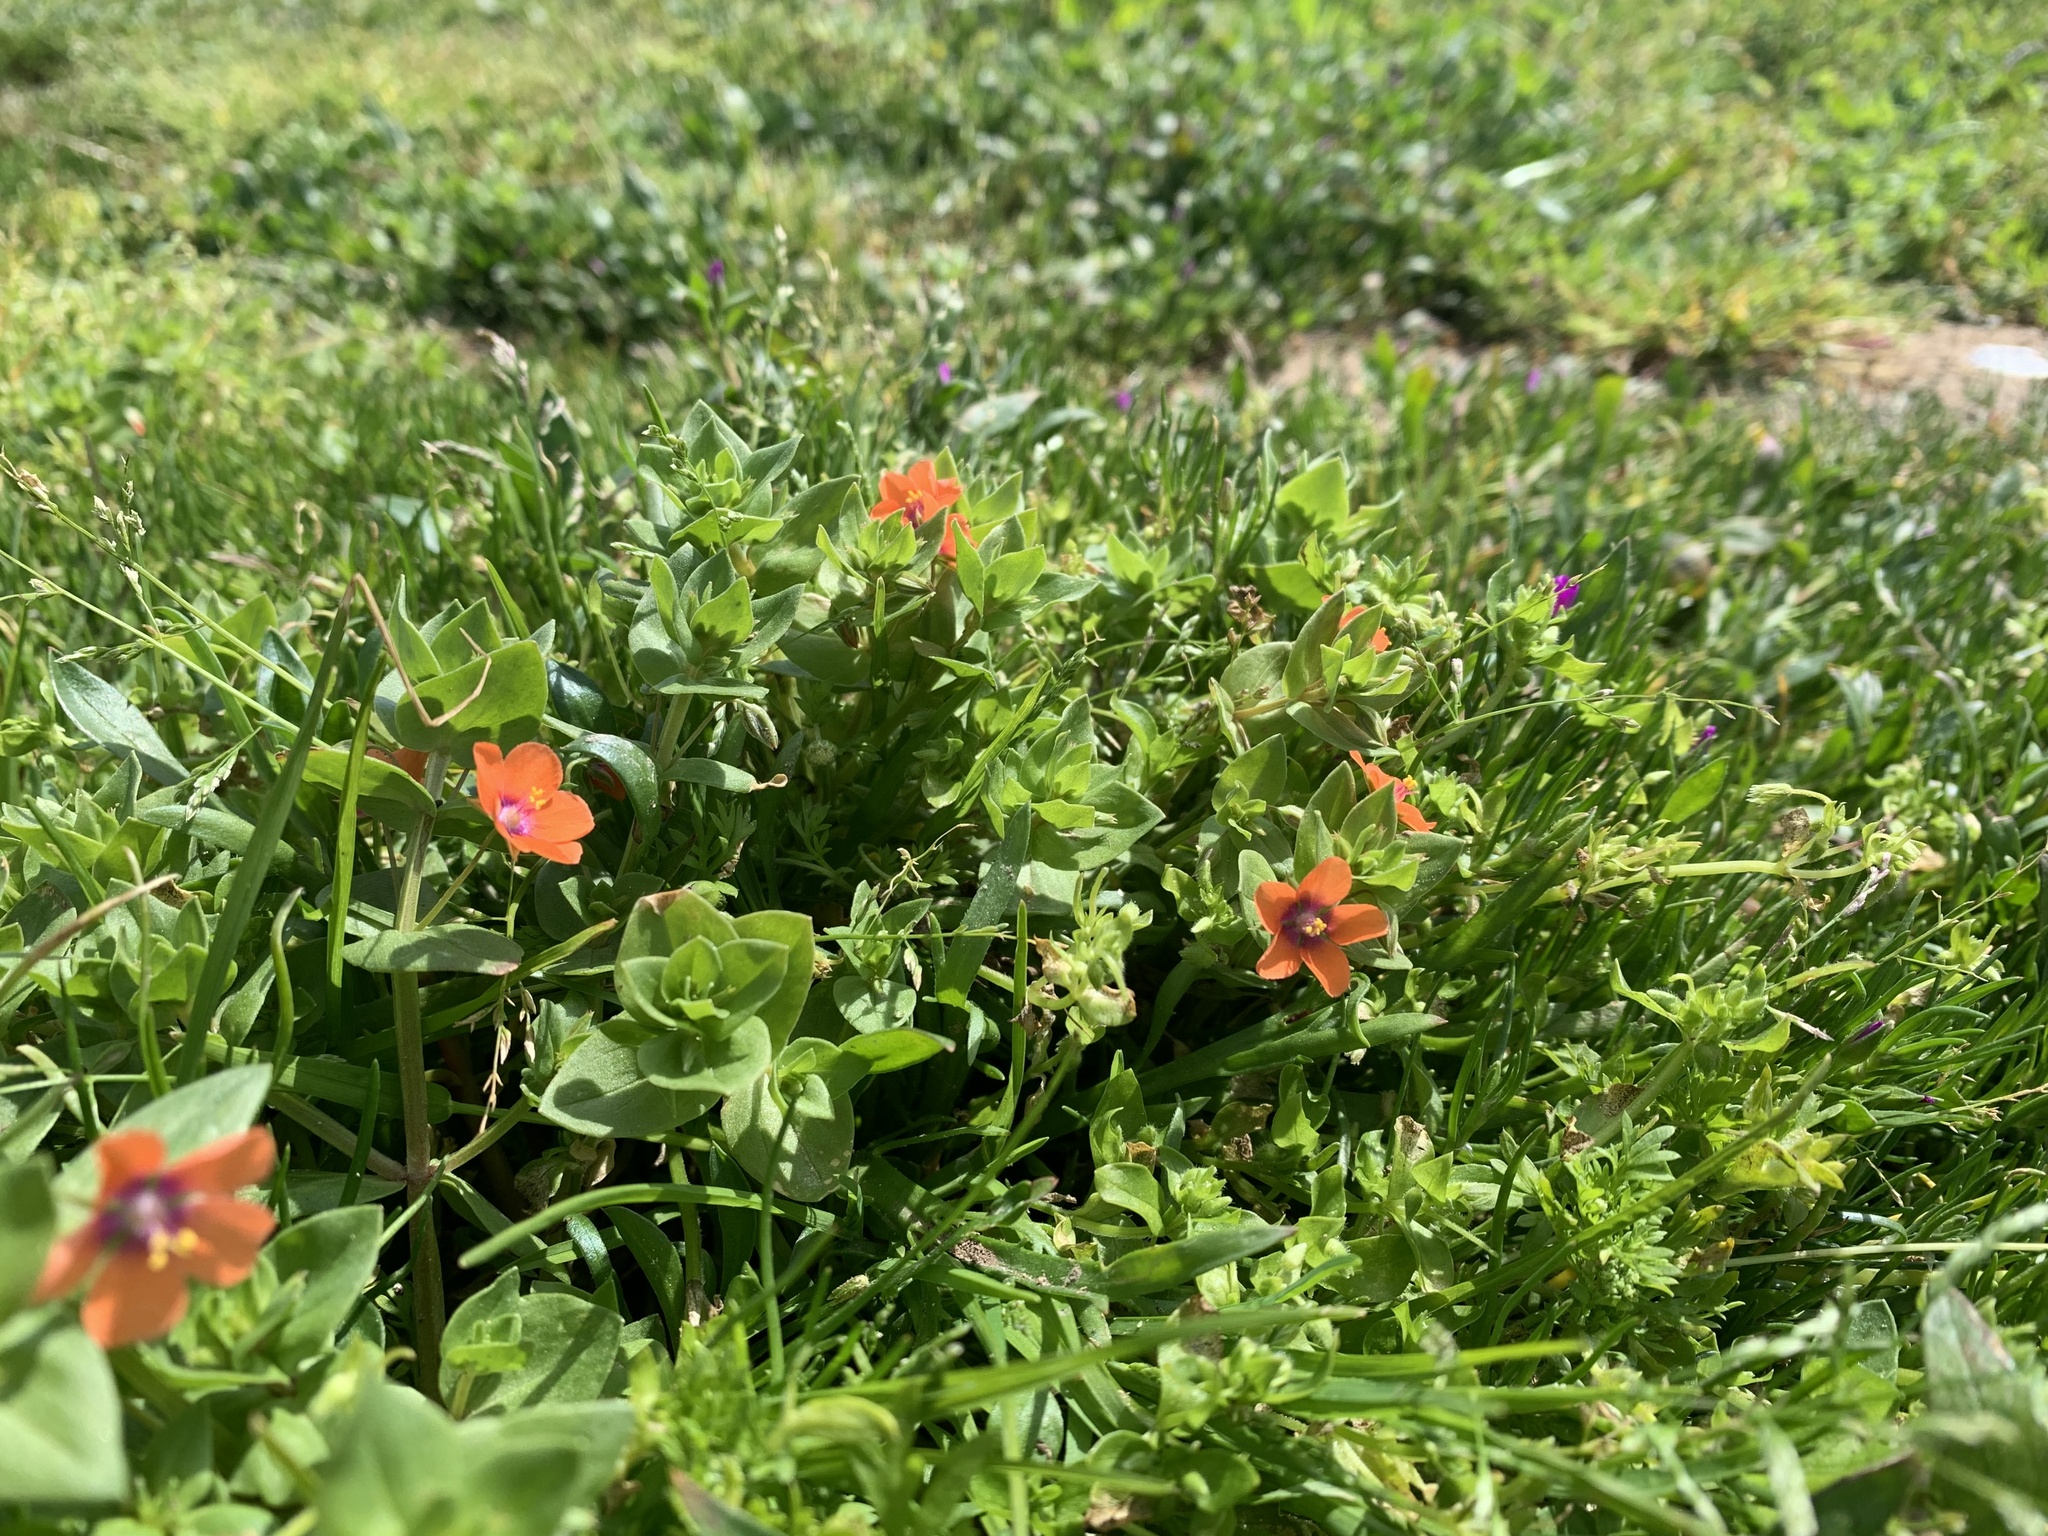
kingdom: Plantae
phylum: Tracheophyta
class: Magnoliopsida
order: Ericales
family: Primulaceae
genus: Lysimachia
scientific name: Lysimachia arvensis
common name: Scarlet pimpernel
